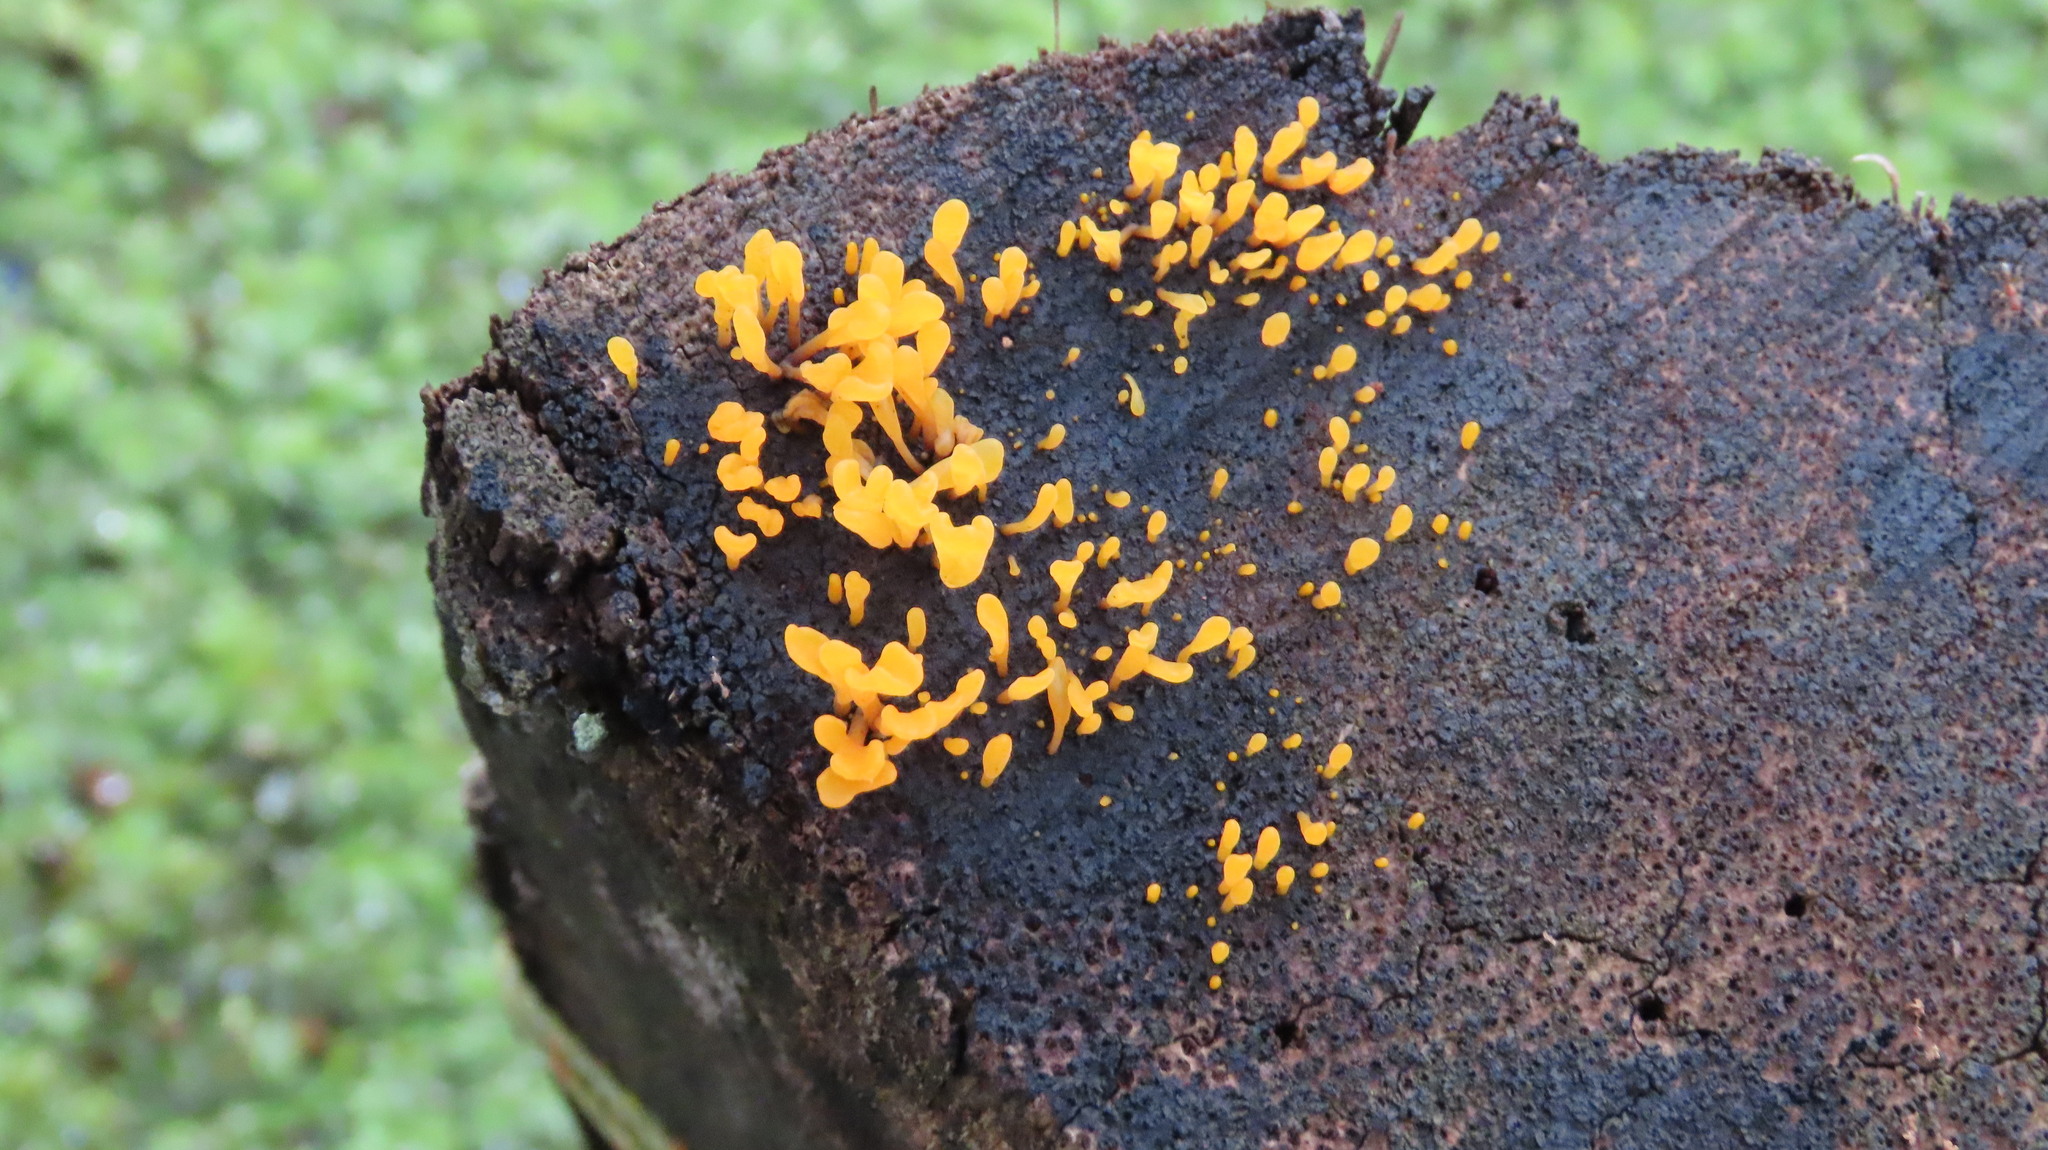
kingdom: Fungi
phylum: Basidiomycota
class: Dacrymycetes
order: Dacrymycetales
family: Dacrymycetaceae
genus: Dacrymyces
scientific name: Dacrymyces spathularius
